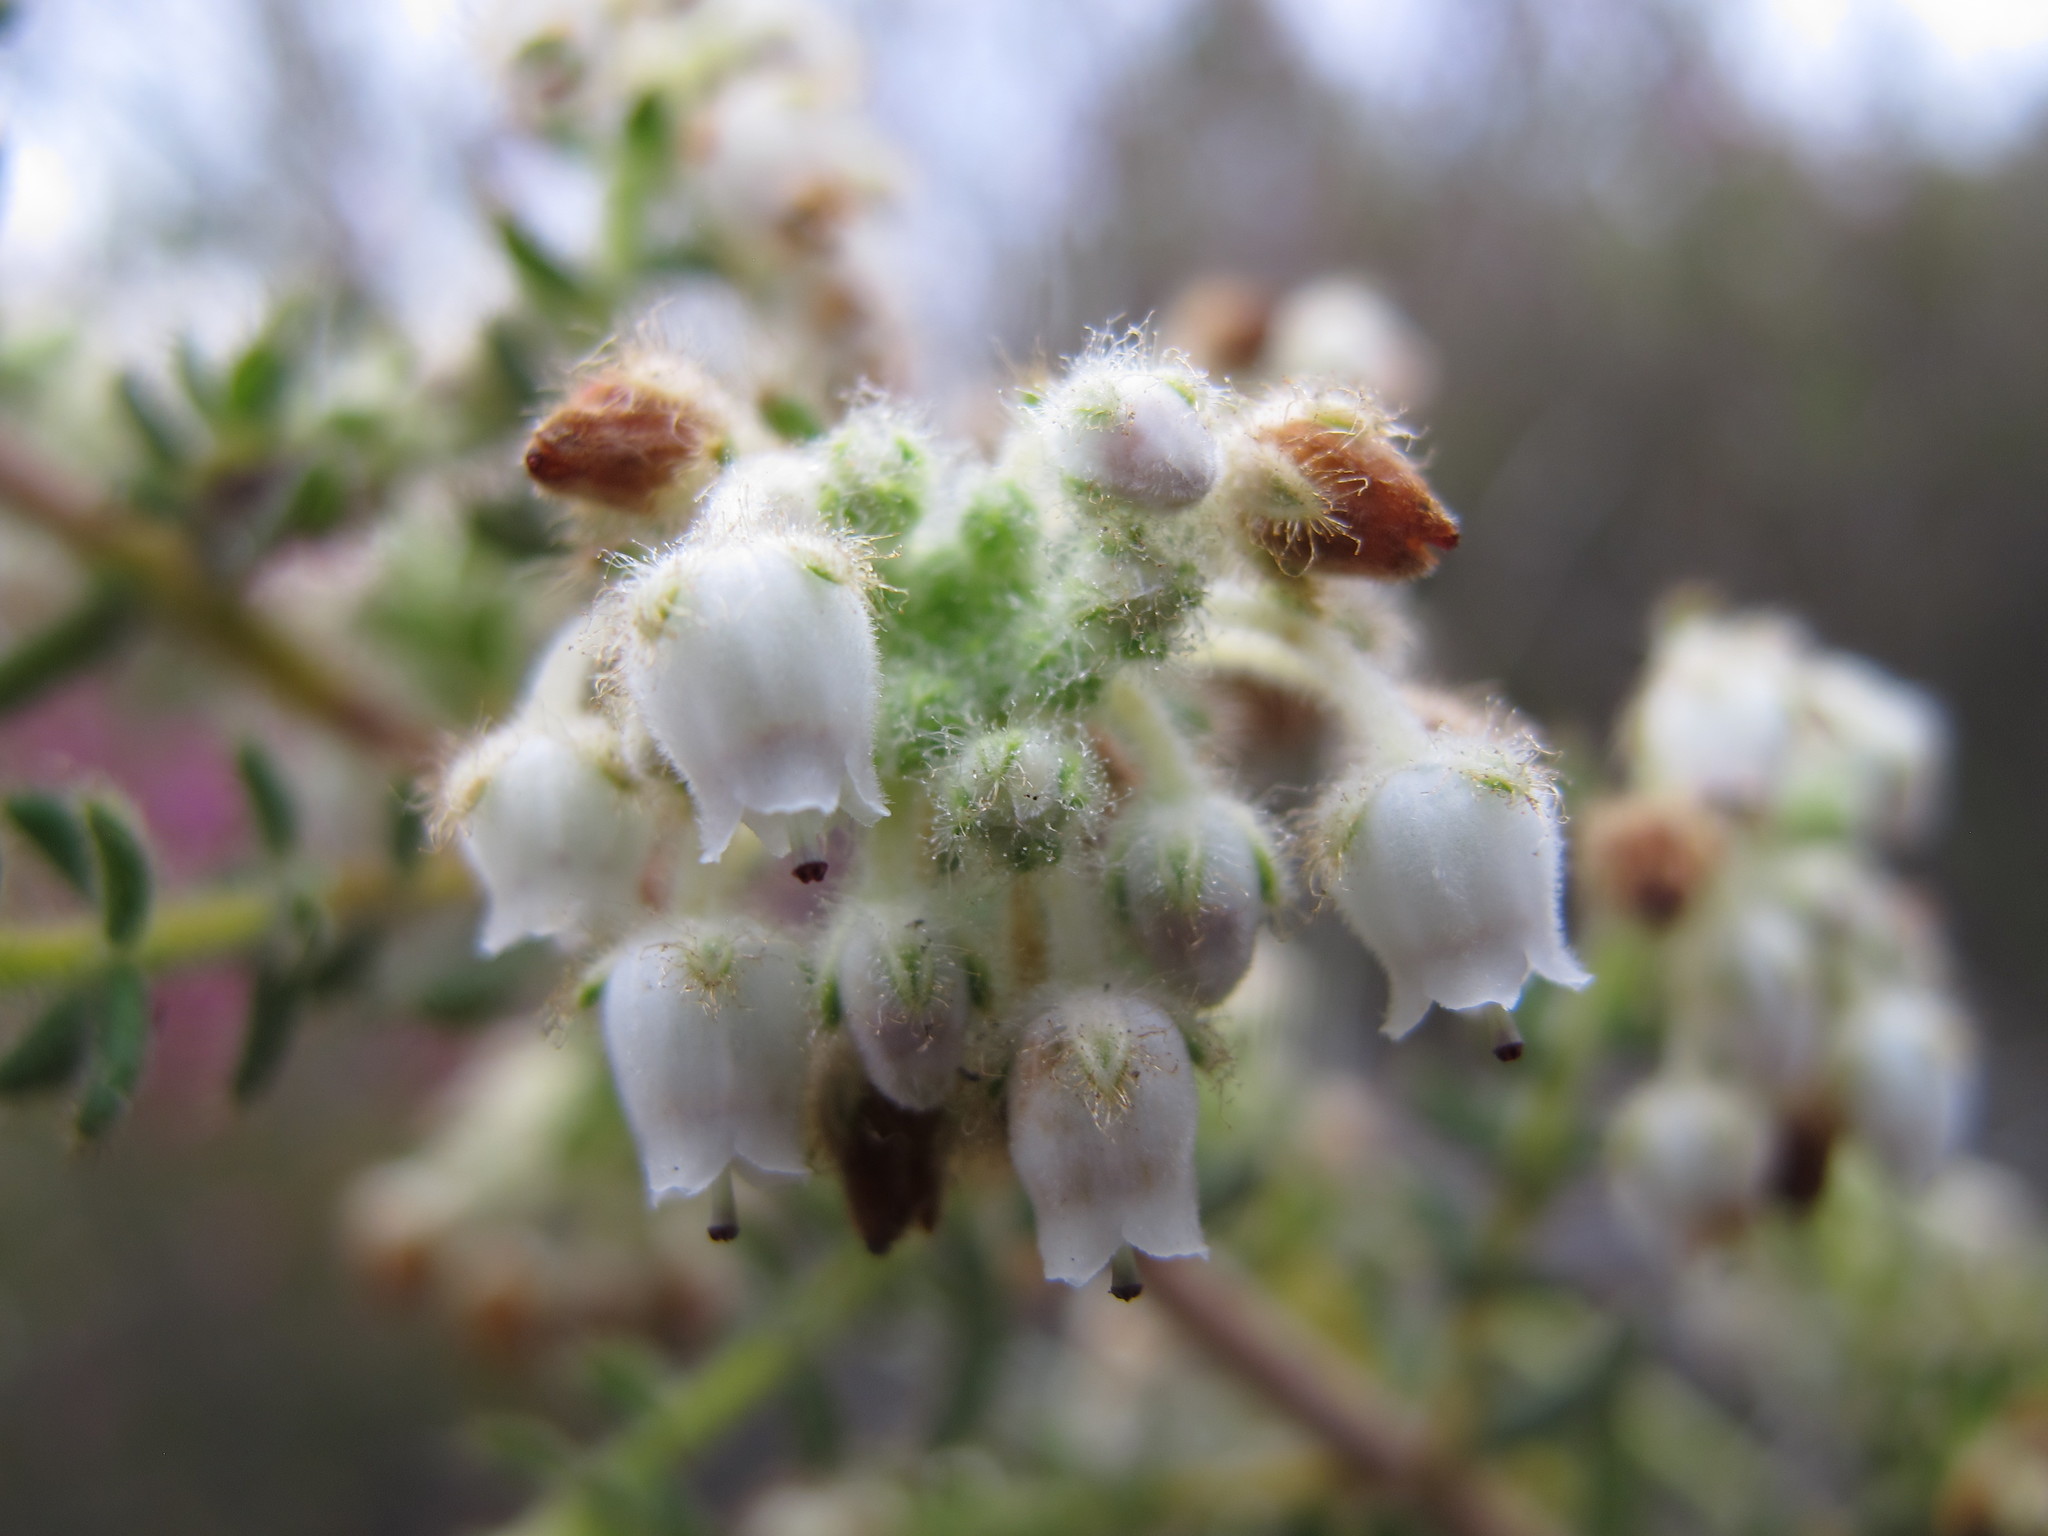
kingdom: Plantae
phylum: Tracheophyta
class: Magnoliopsida
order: Ericales
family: Ericaceae
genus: Erica
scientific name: Erica pannosa
